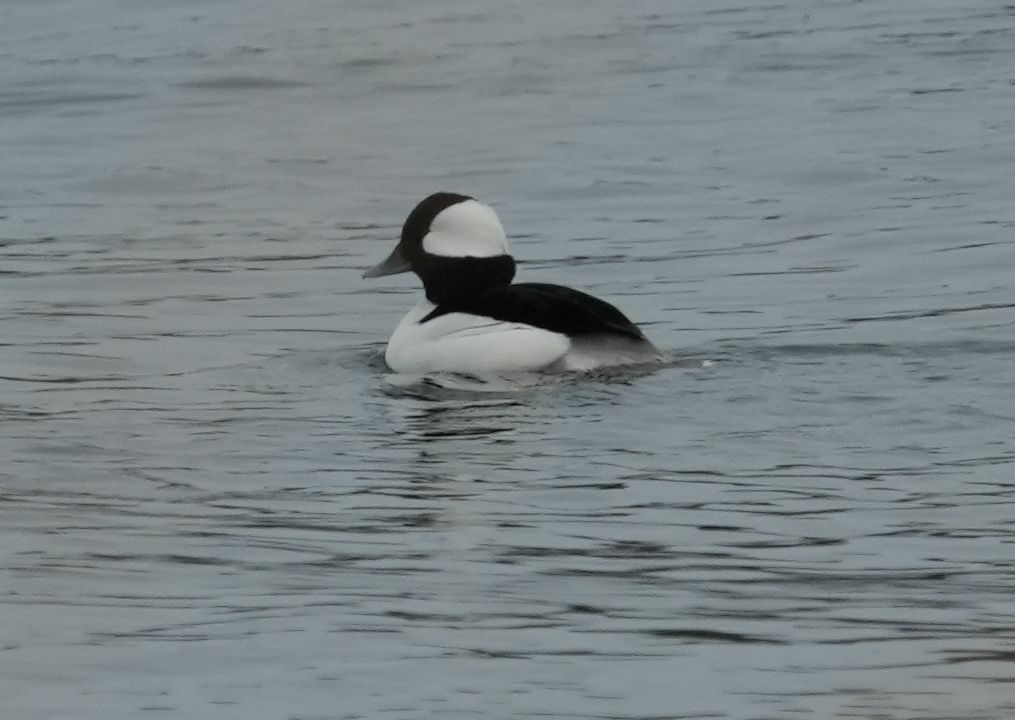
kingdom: Animalia
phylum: Chordata
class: Aves
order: Anseriformes
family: Anatidae
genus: Bucephala
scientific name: Bucephala albeola
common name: Bufflehead
